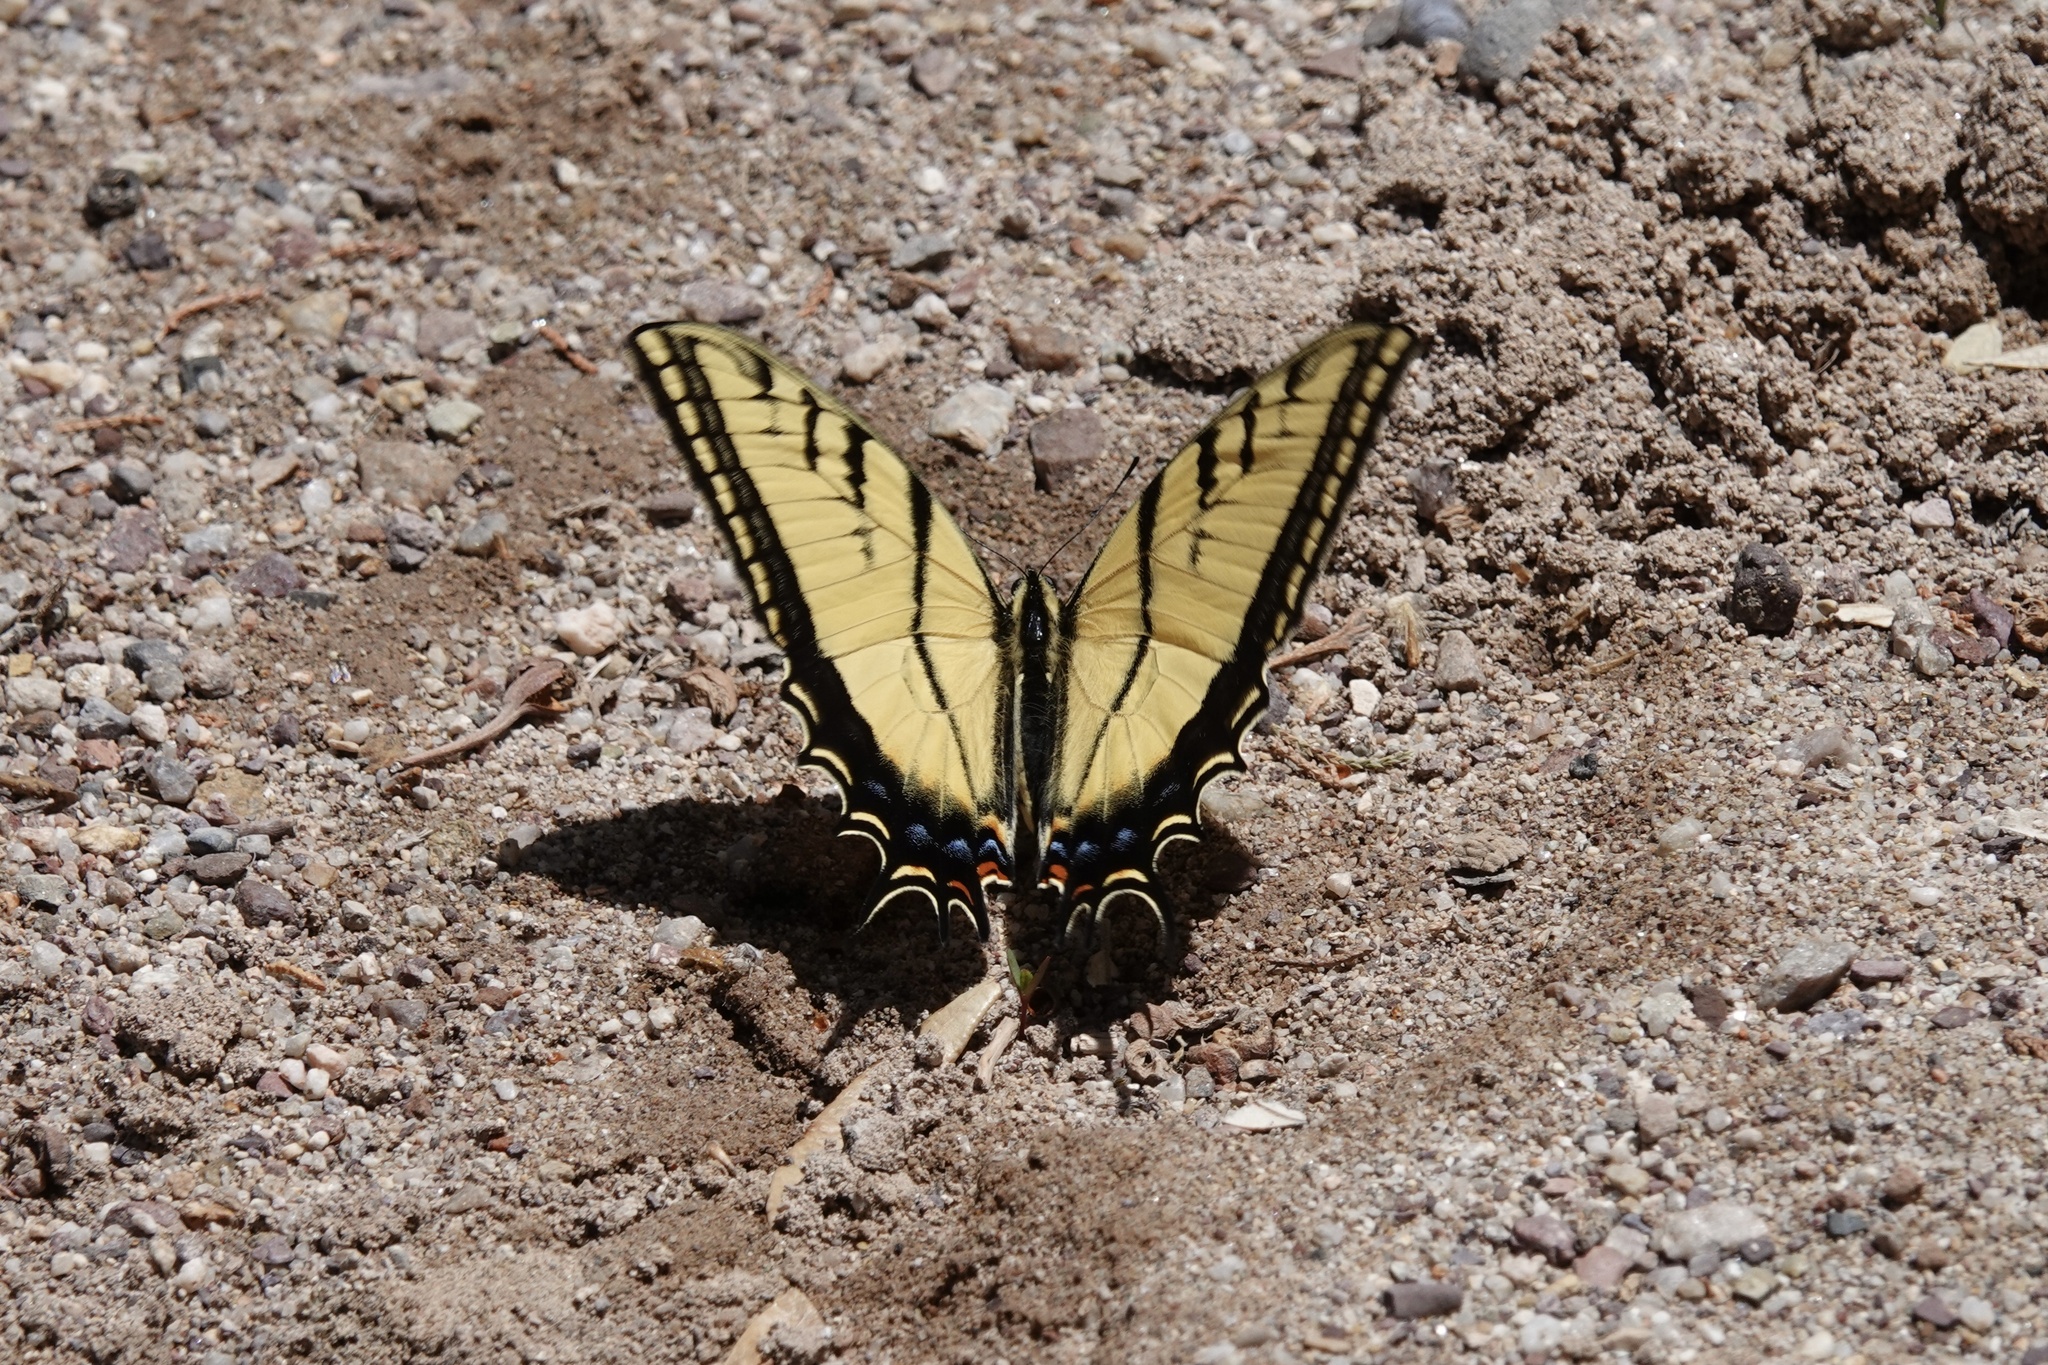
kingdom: Animalia
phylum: Arthropoda
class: Insecta
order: Lepidoptera
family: Papilionidae
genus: Papilio
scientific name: Papilio multicaudata
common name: Two-tailed tiger swallowtail
